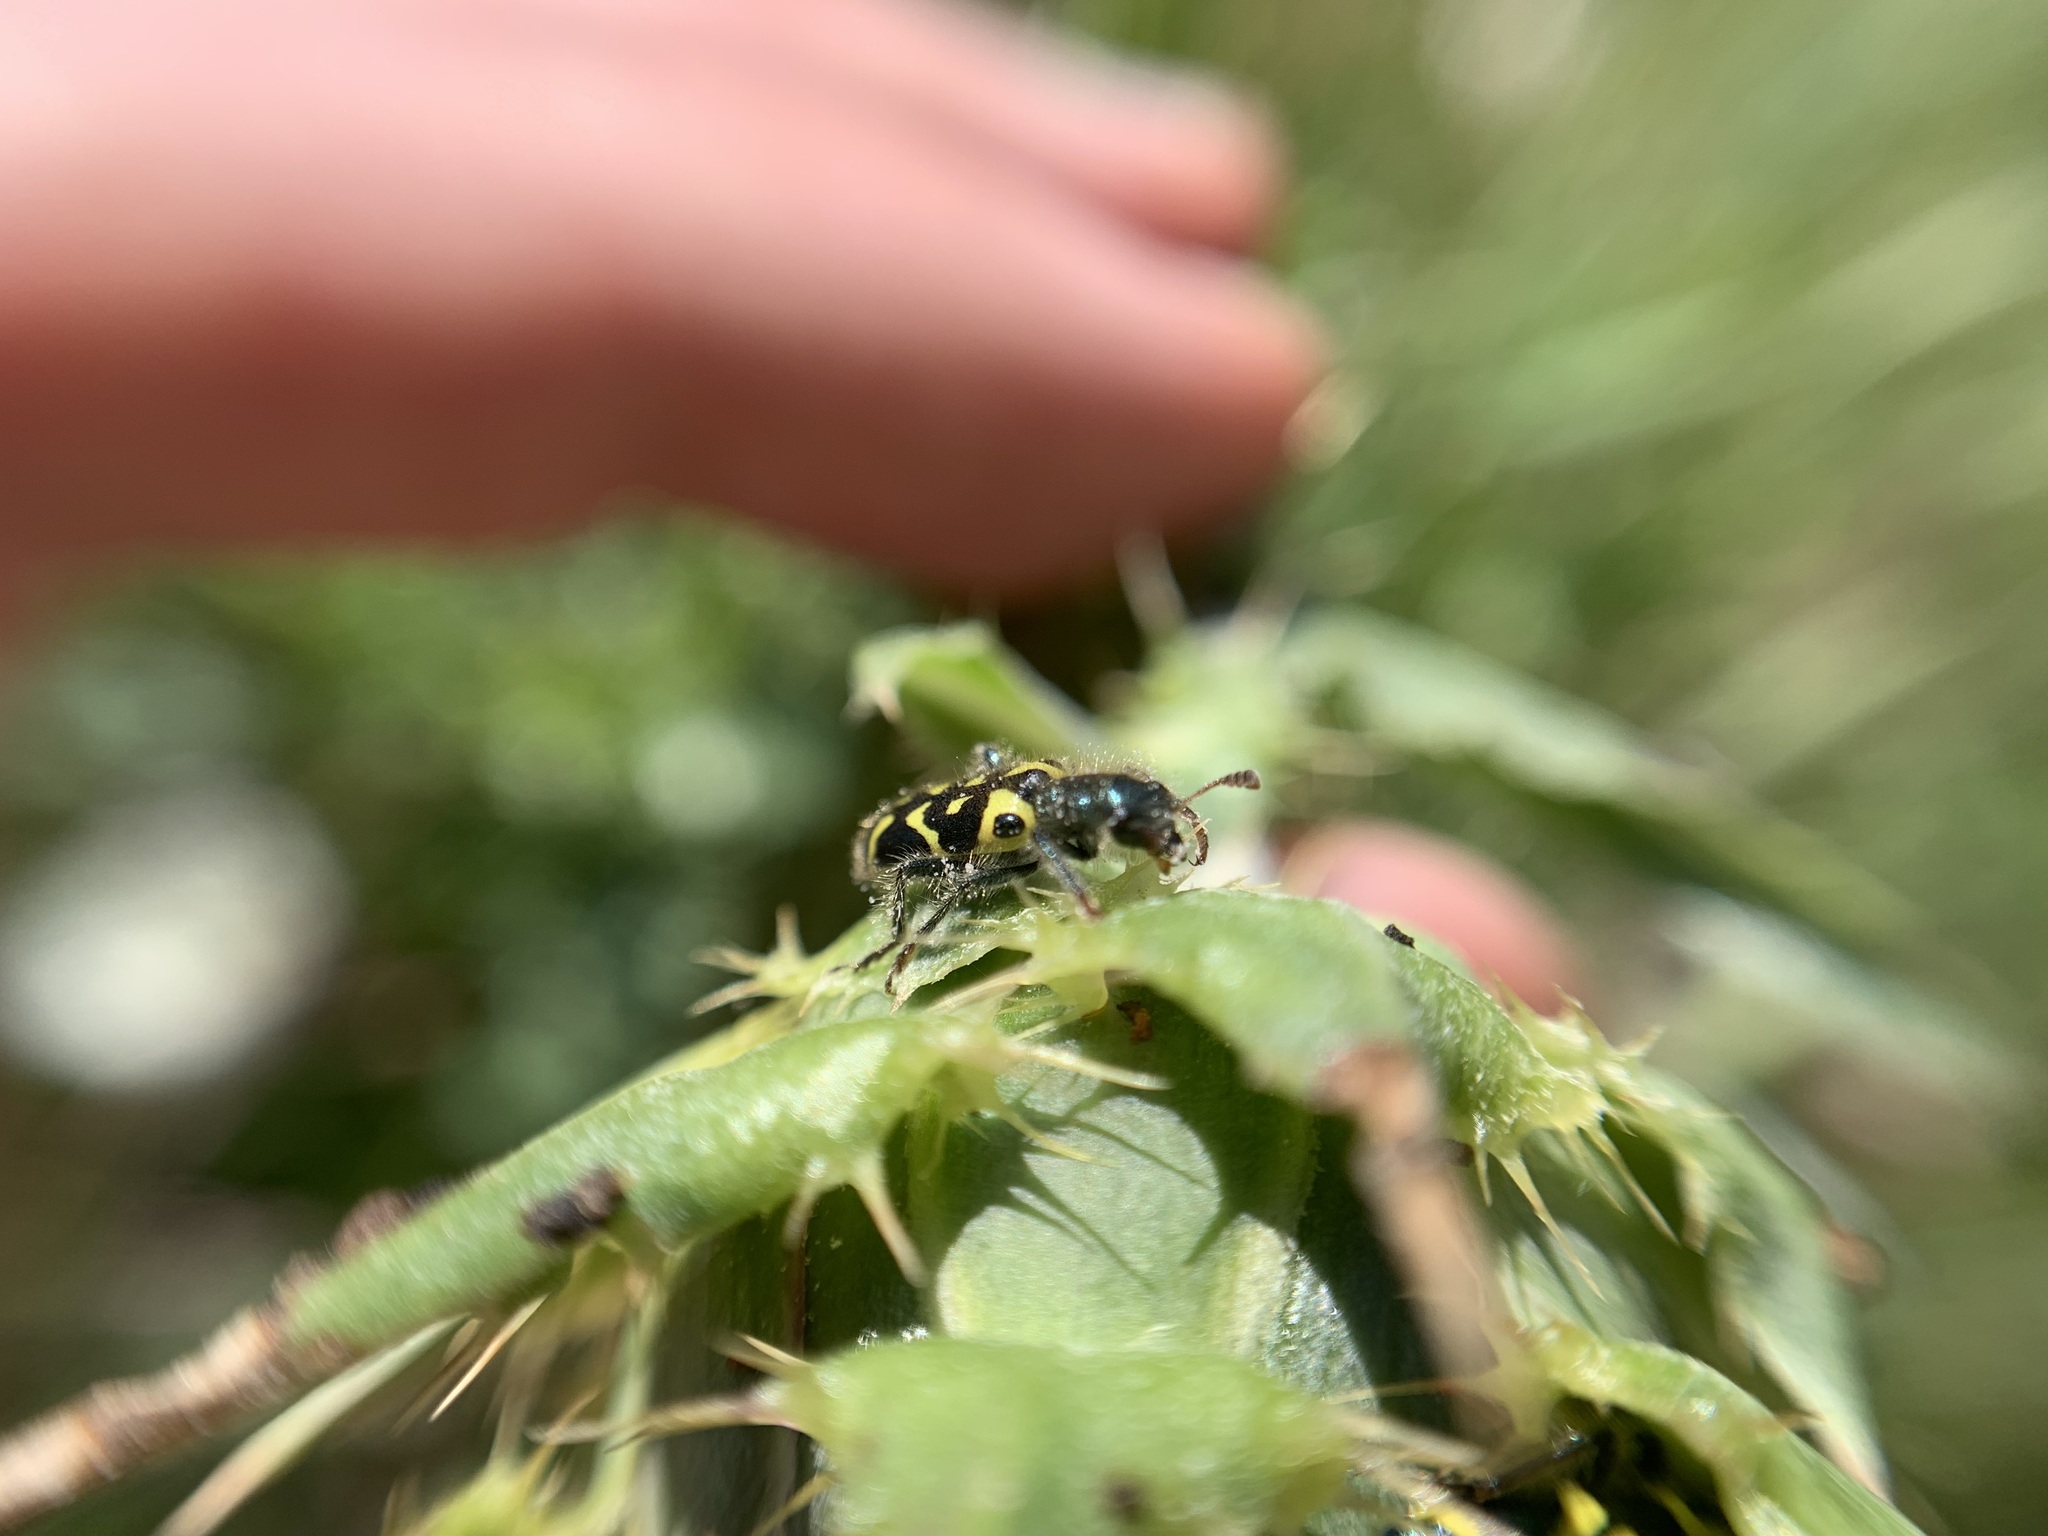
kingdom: Animalia
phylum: Arthropoda
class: Insecta
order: Coleoptera
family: Cleridae
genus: Trichodes
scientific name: Trichodes ornatus
